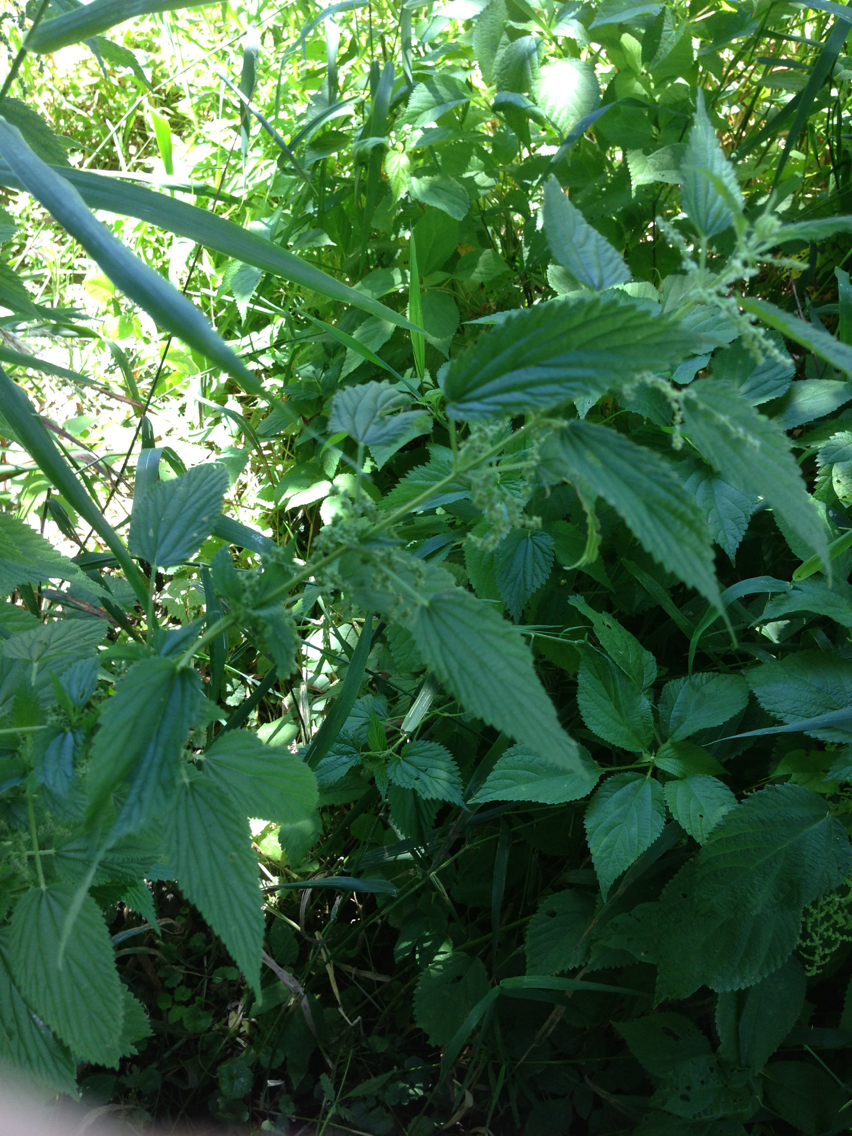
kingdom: Plantae
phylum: Tracheophyta
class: Magnoliopsida
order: Rosales
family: Urticaceae
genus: Urtica
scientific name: Urtica dioica
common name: Common nettle
